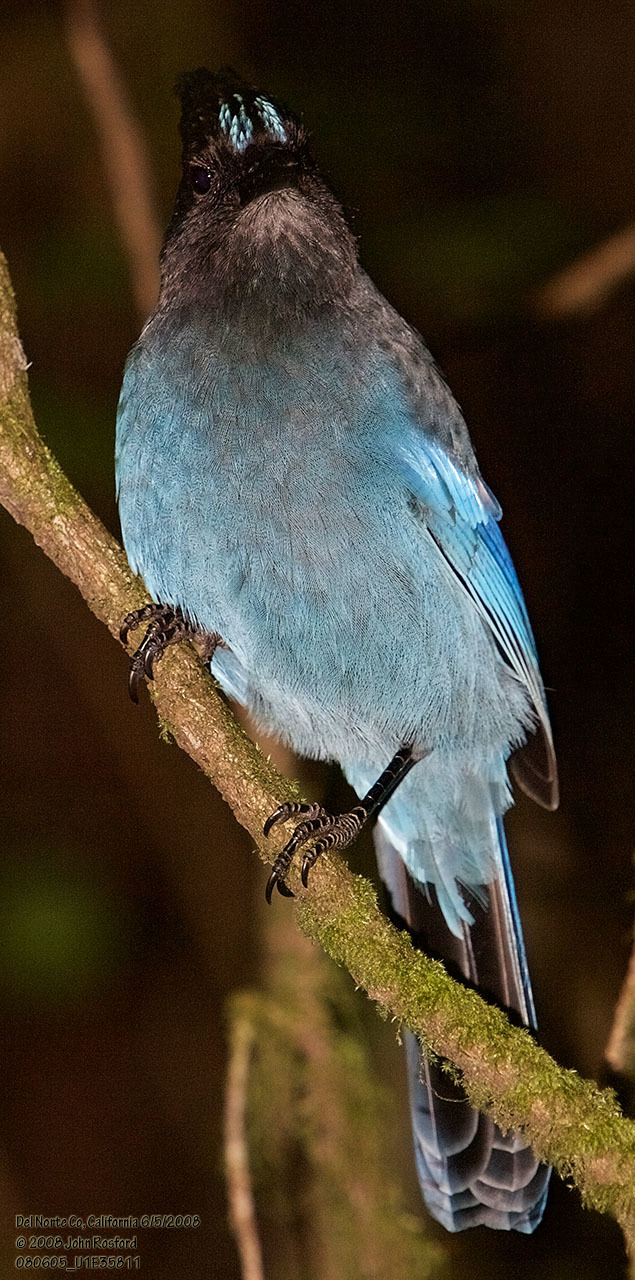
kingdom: Animalia
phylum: Chordata
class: Aves
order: Passeriformes
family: Corvidae
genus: Cyanocitta
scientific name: Cyanocitta stelleri
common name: Steller's jay
